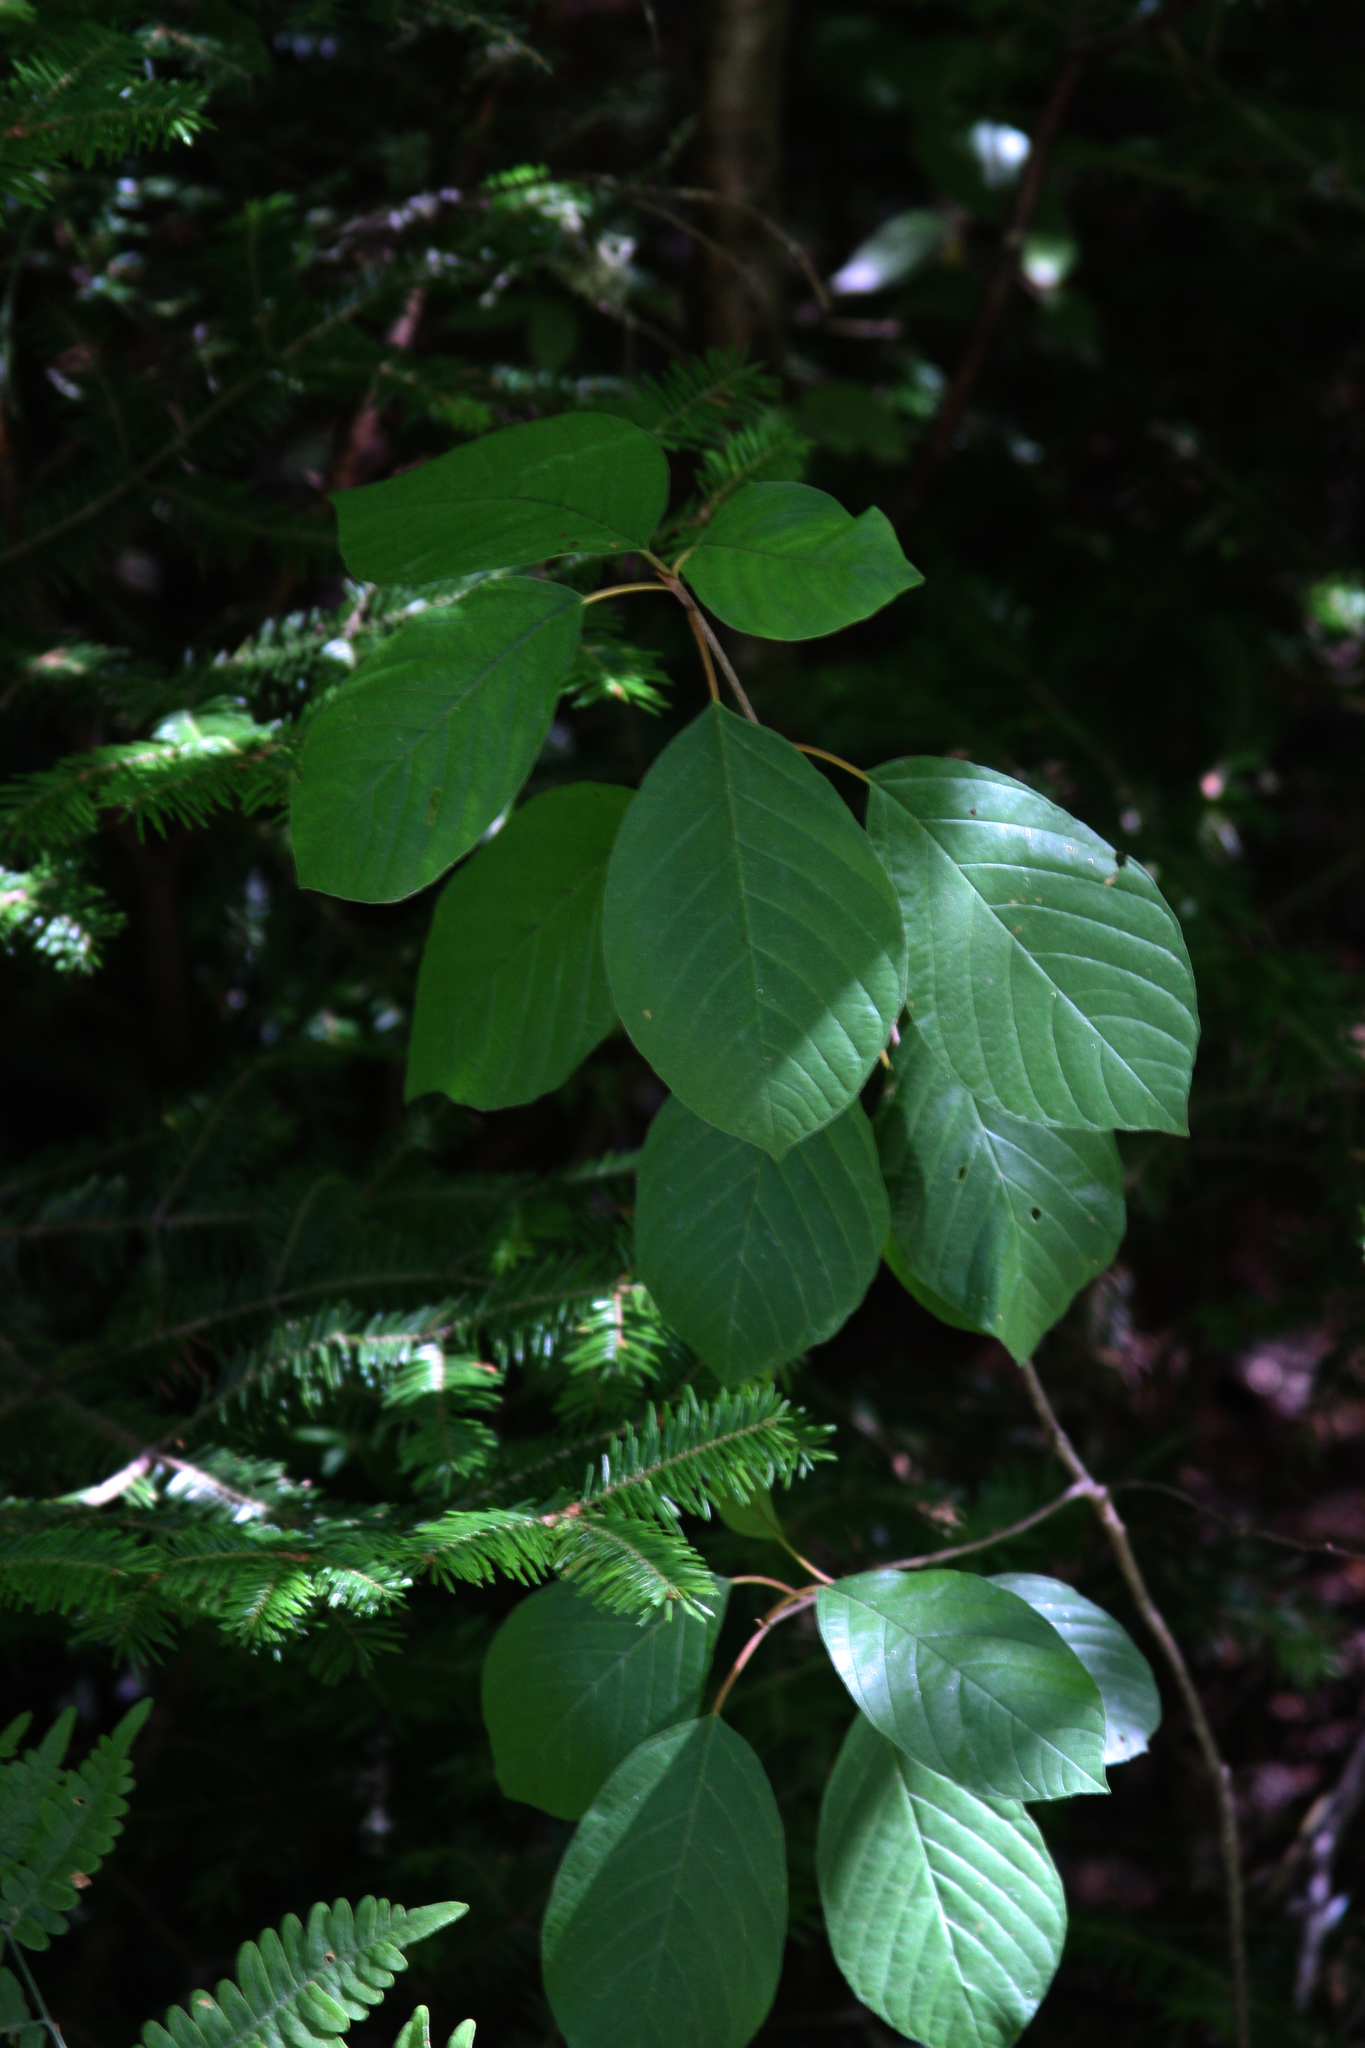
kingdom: Plantae
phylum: Tracheophyta
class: Magnoliopsida
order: Rosales
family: Rhamnaceae
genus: Frangula
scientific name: Frangula alnus
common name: Alder buckthorn
